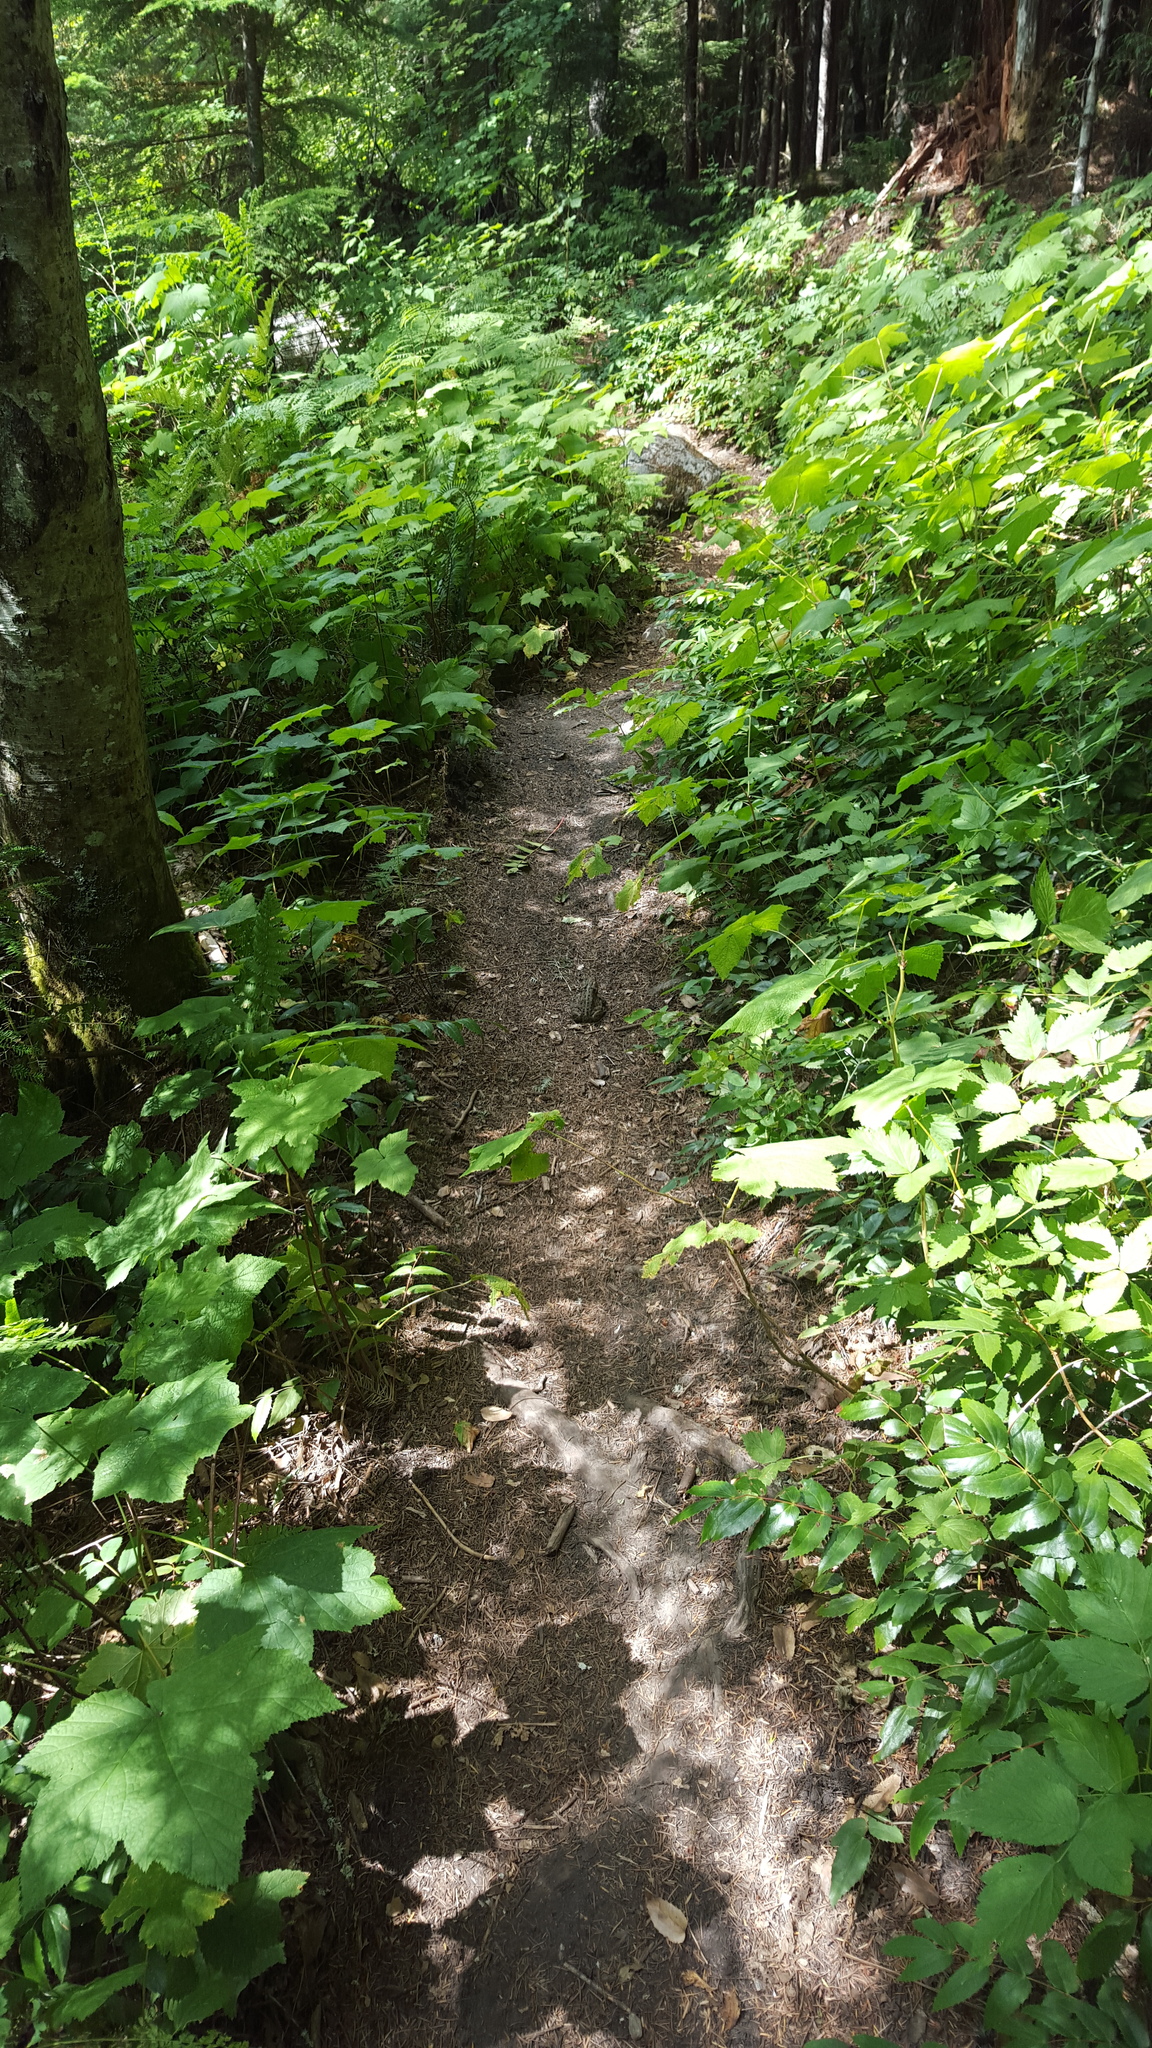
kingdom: Animalia
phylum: Chordata
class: Amphibia
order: Anura
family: Bufonidae
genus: Anaxyrus
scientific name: Anaxyrus boreas
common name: Western toad
